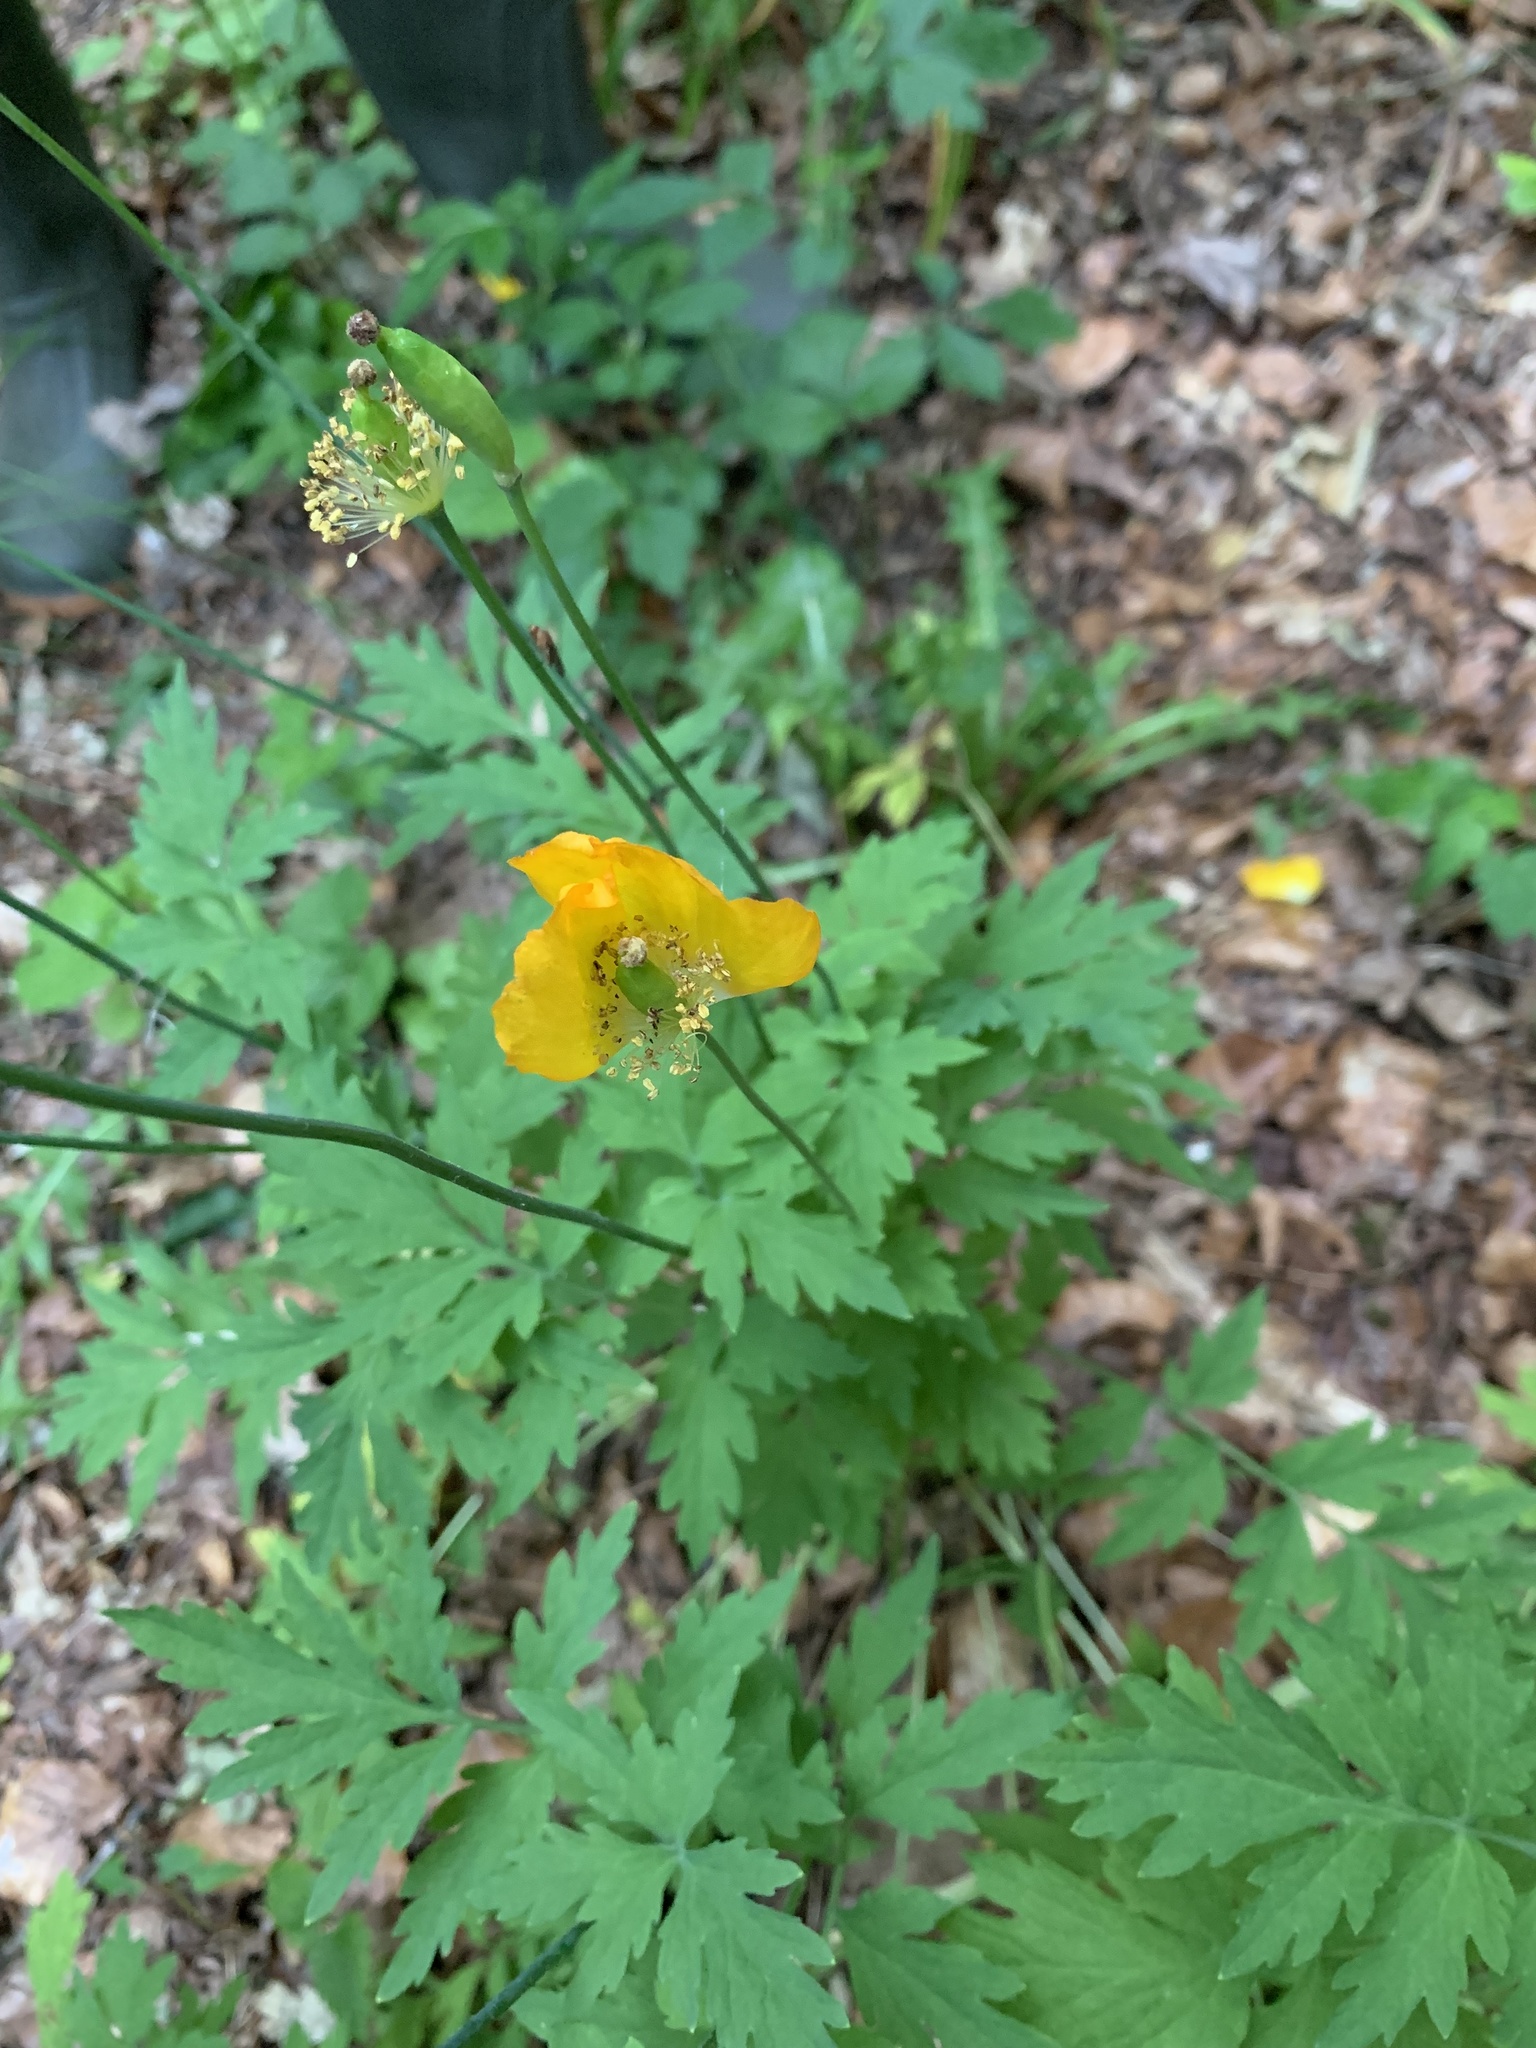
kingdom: Plantae
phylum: Tracheophyta
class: Magnoliopsida
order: Ranunculales
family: Papaveraceae
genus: Papaver
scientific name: Papaver cambricum
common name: Poppy
